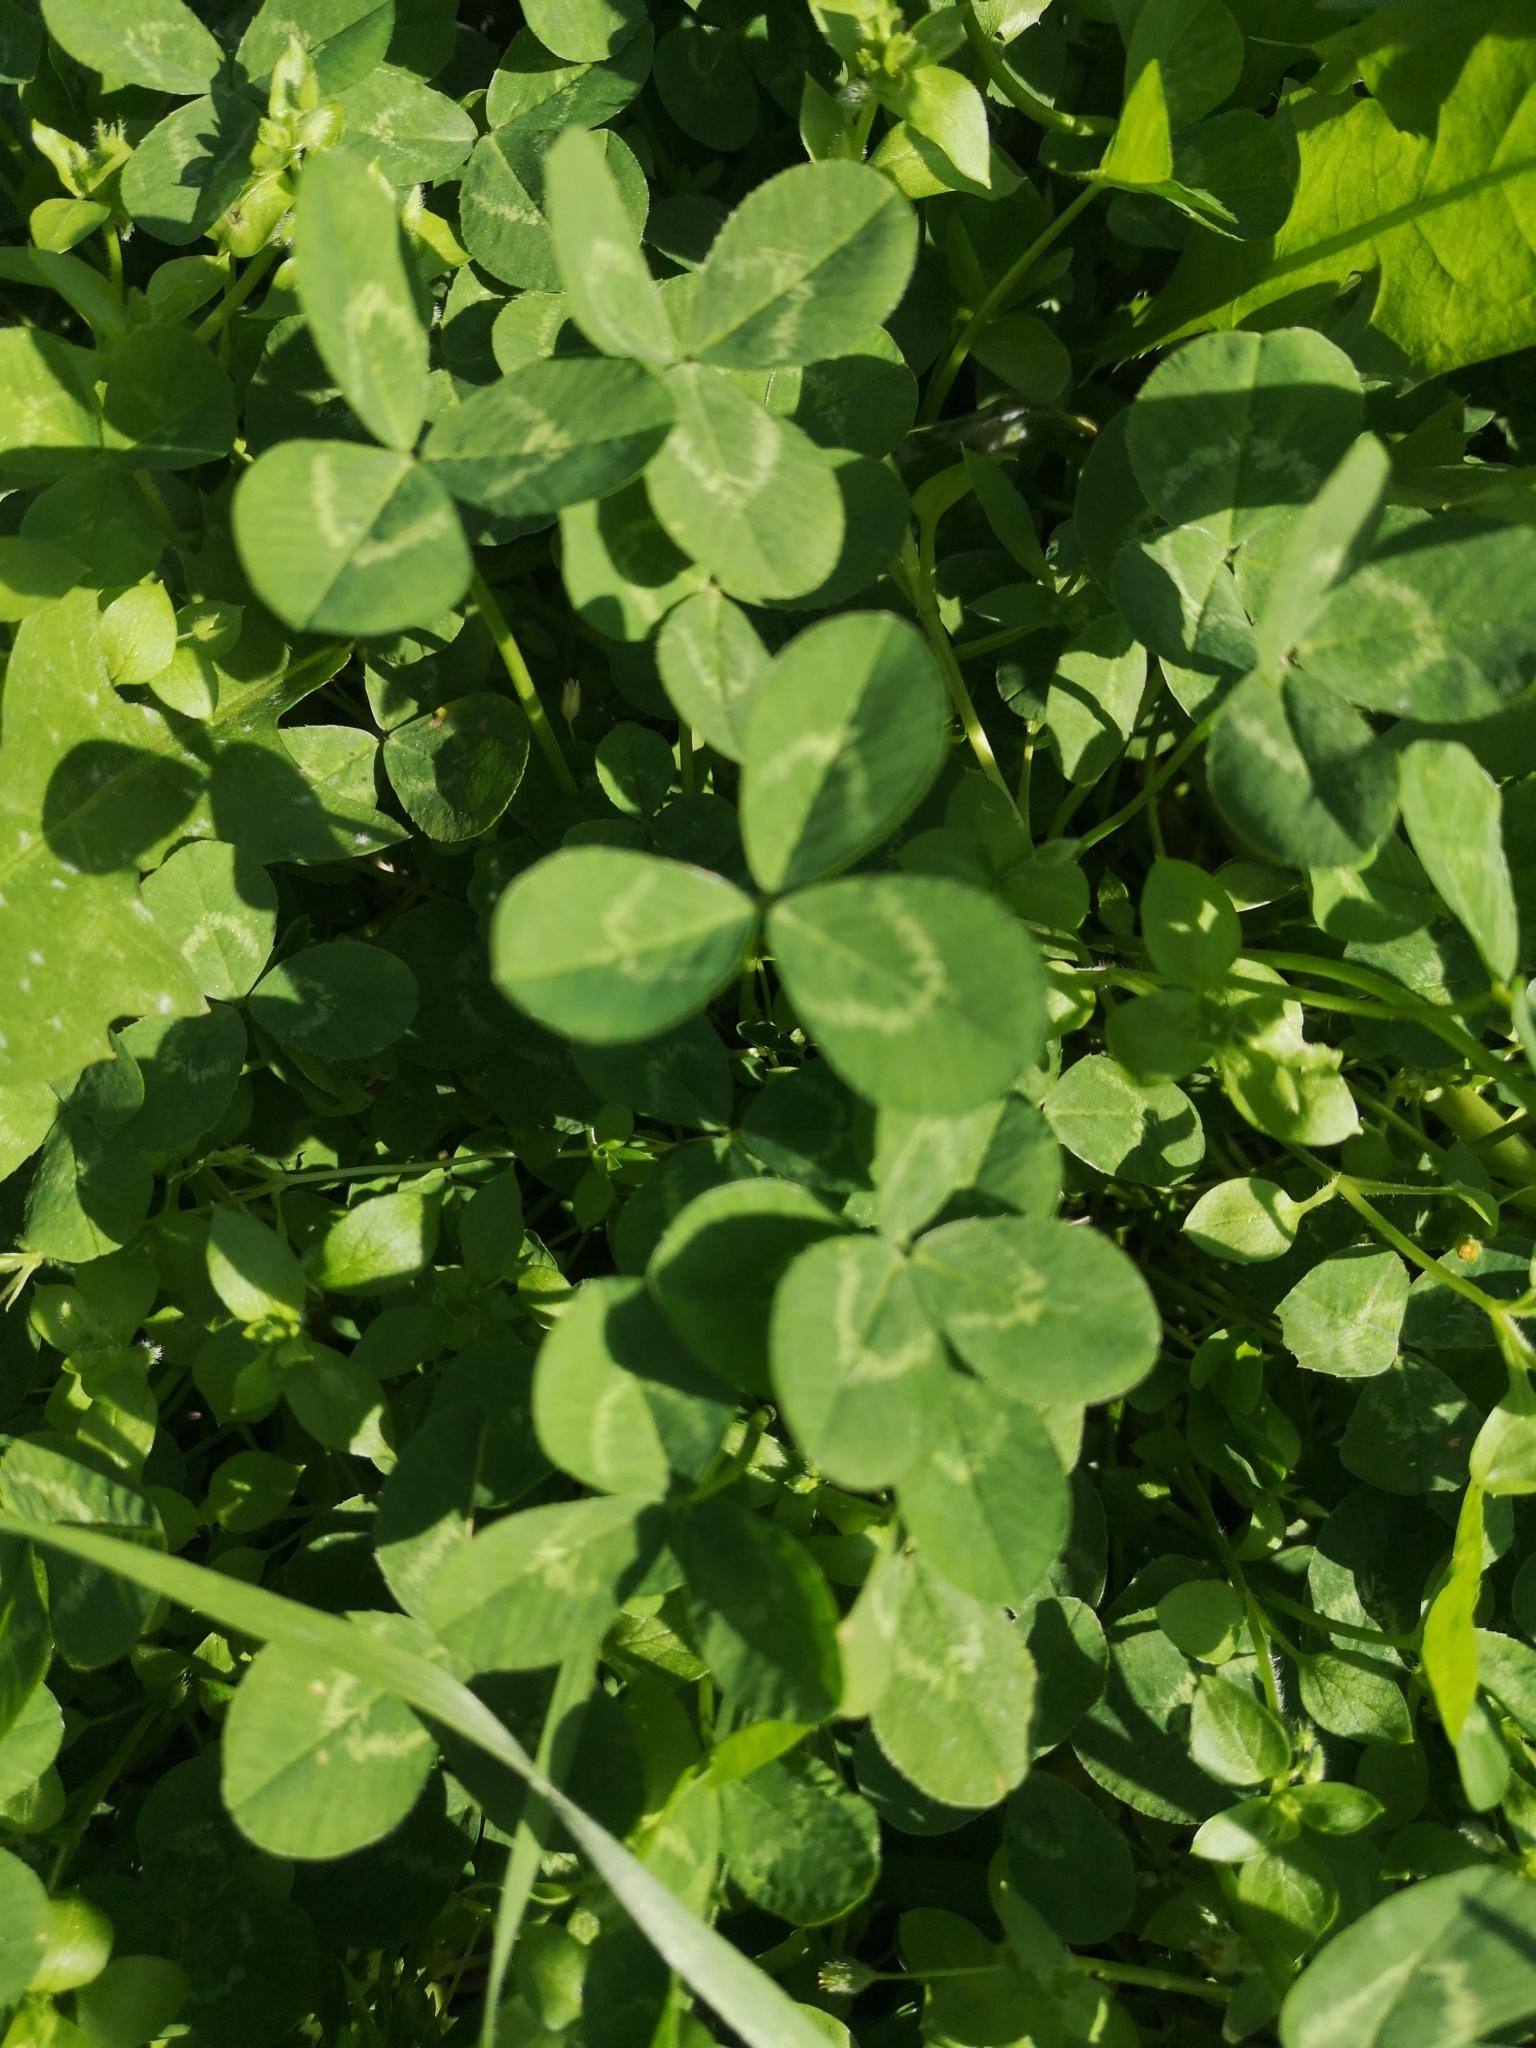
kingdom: Plantae
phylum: Tracheophyta
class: Magnoliopsida
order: Fabales
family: Fabaceae
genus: Trifolium
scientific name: Trifolium repens
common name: White clover
